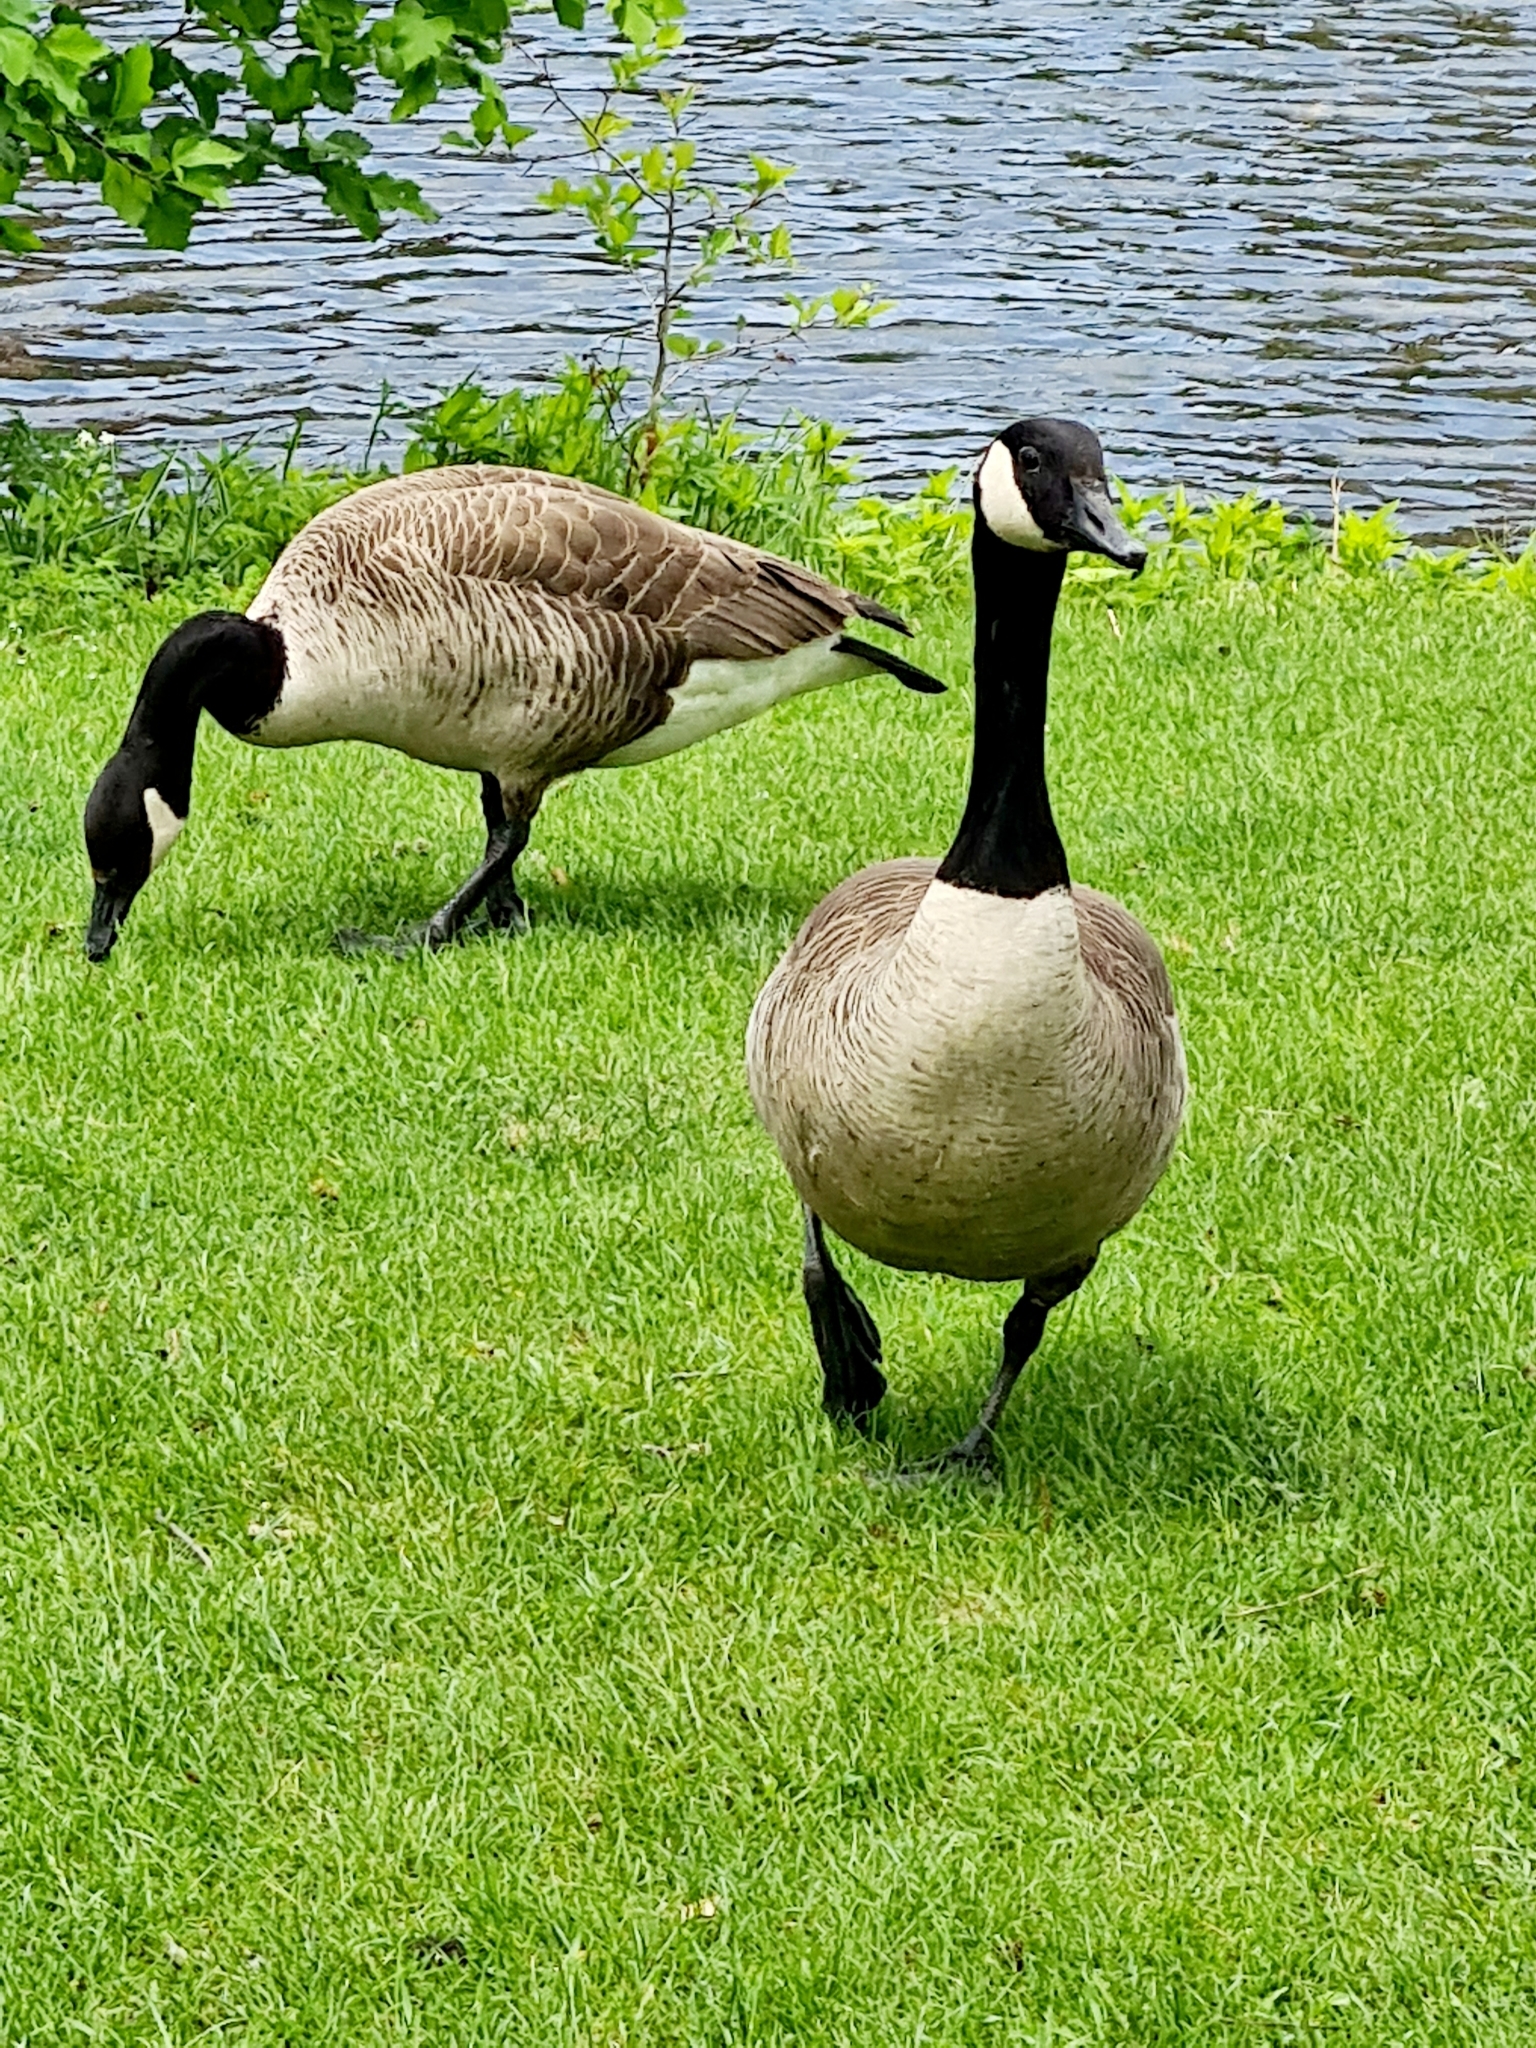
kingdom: Animalia
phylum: Chordata
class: Aves
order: Anseriformes
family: Anatidae
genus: Branta
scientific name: Branta canadensis
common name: Canada goose
